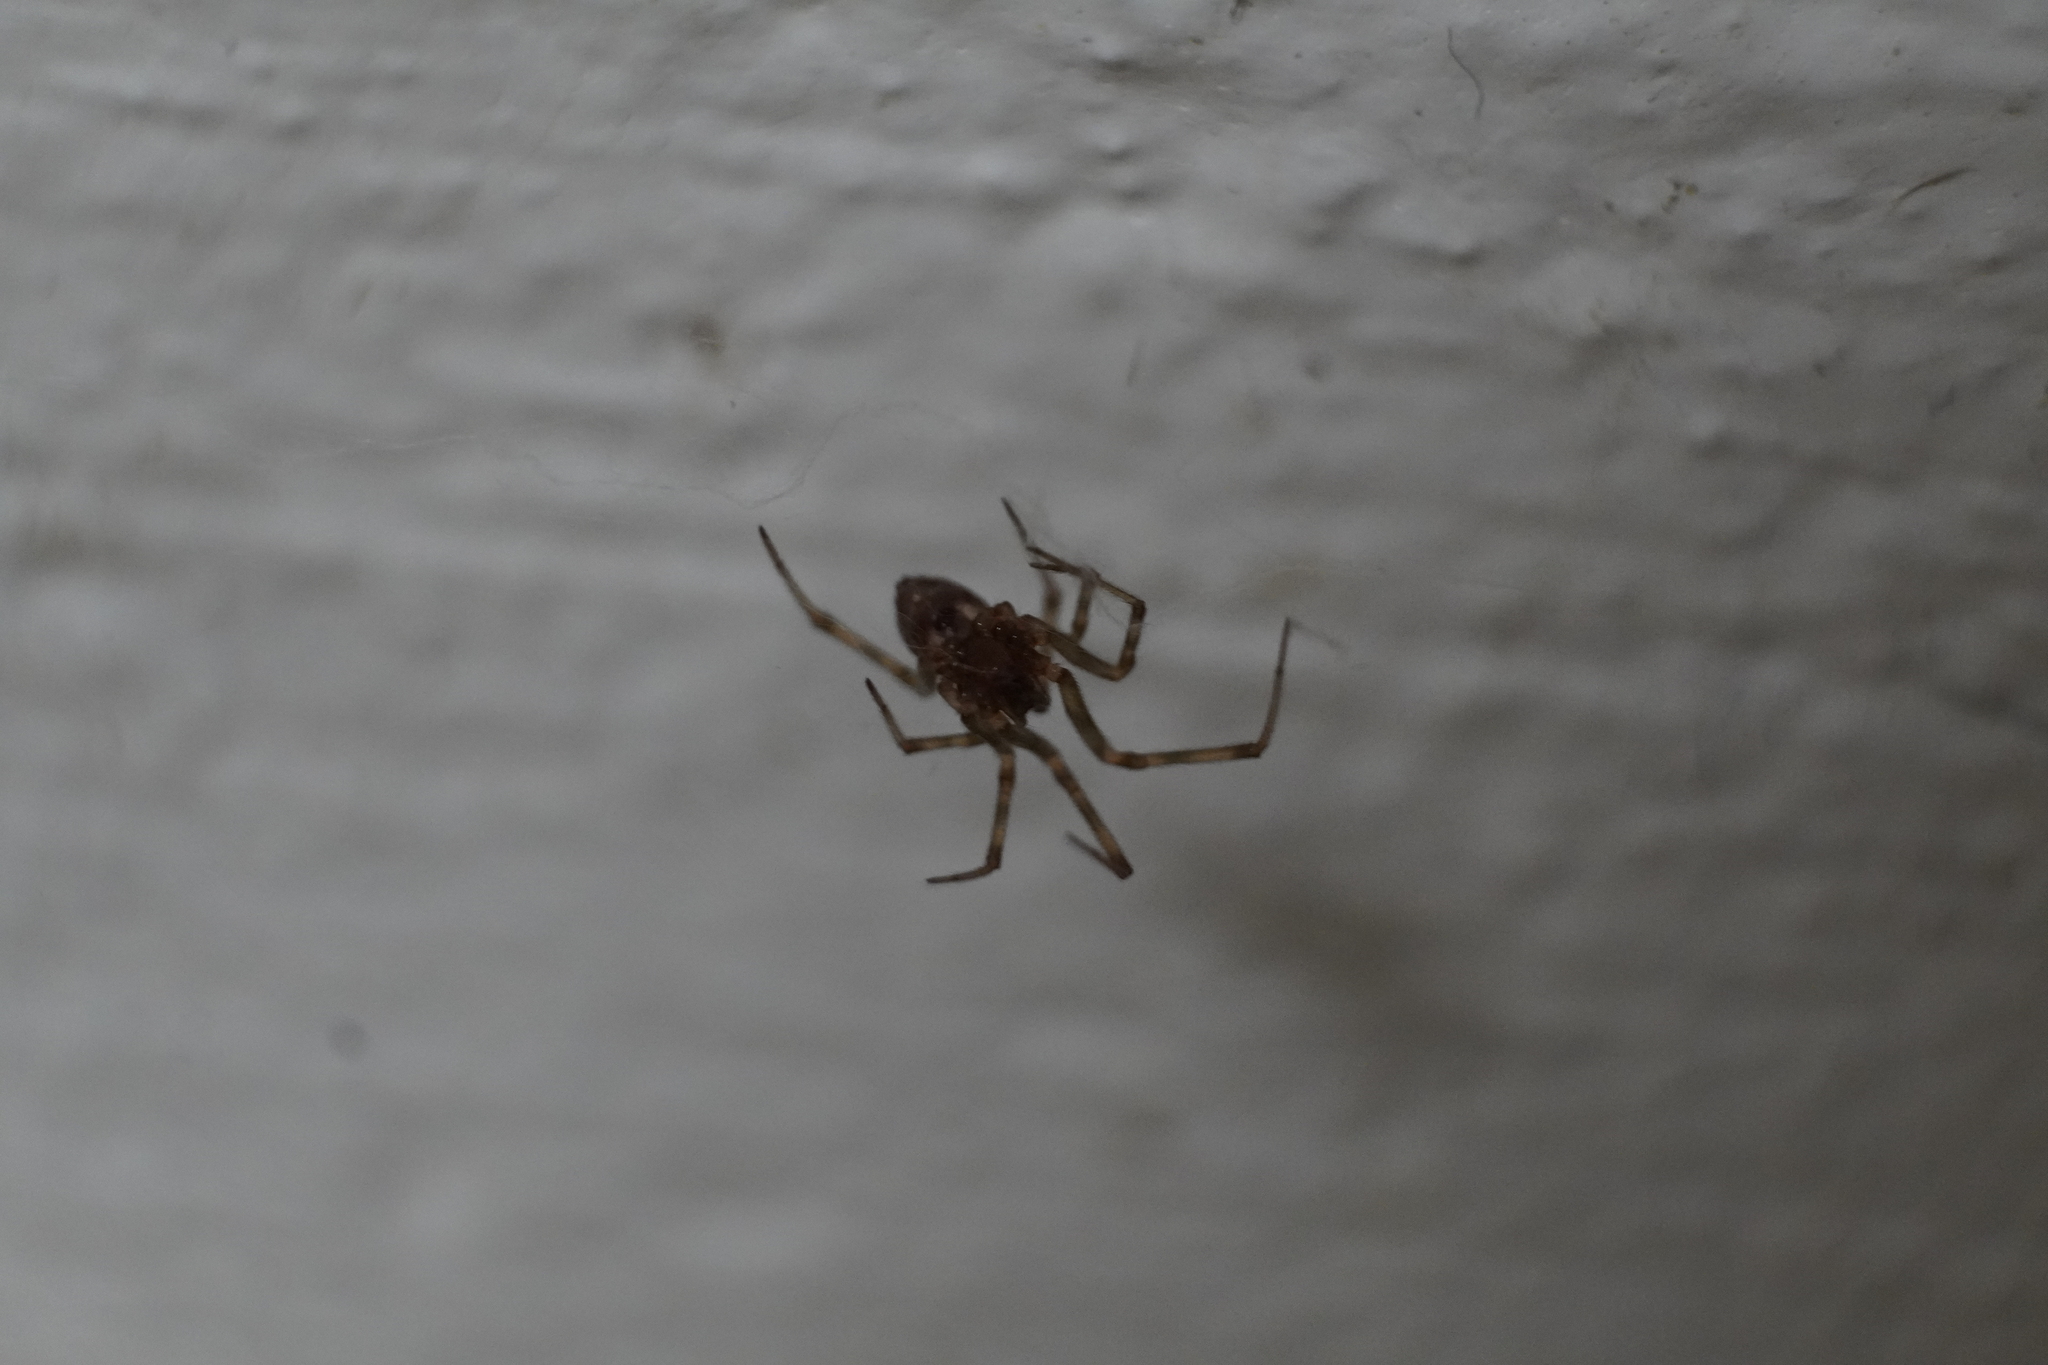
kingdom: Animalia
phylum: Arthropoda
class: Arachnida
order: Araneae
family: Theridiidae
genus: Parasteatoda
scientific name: Parasteatoda
